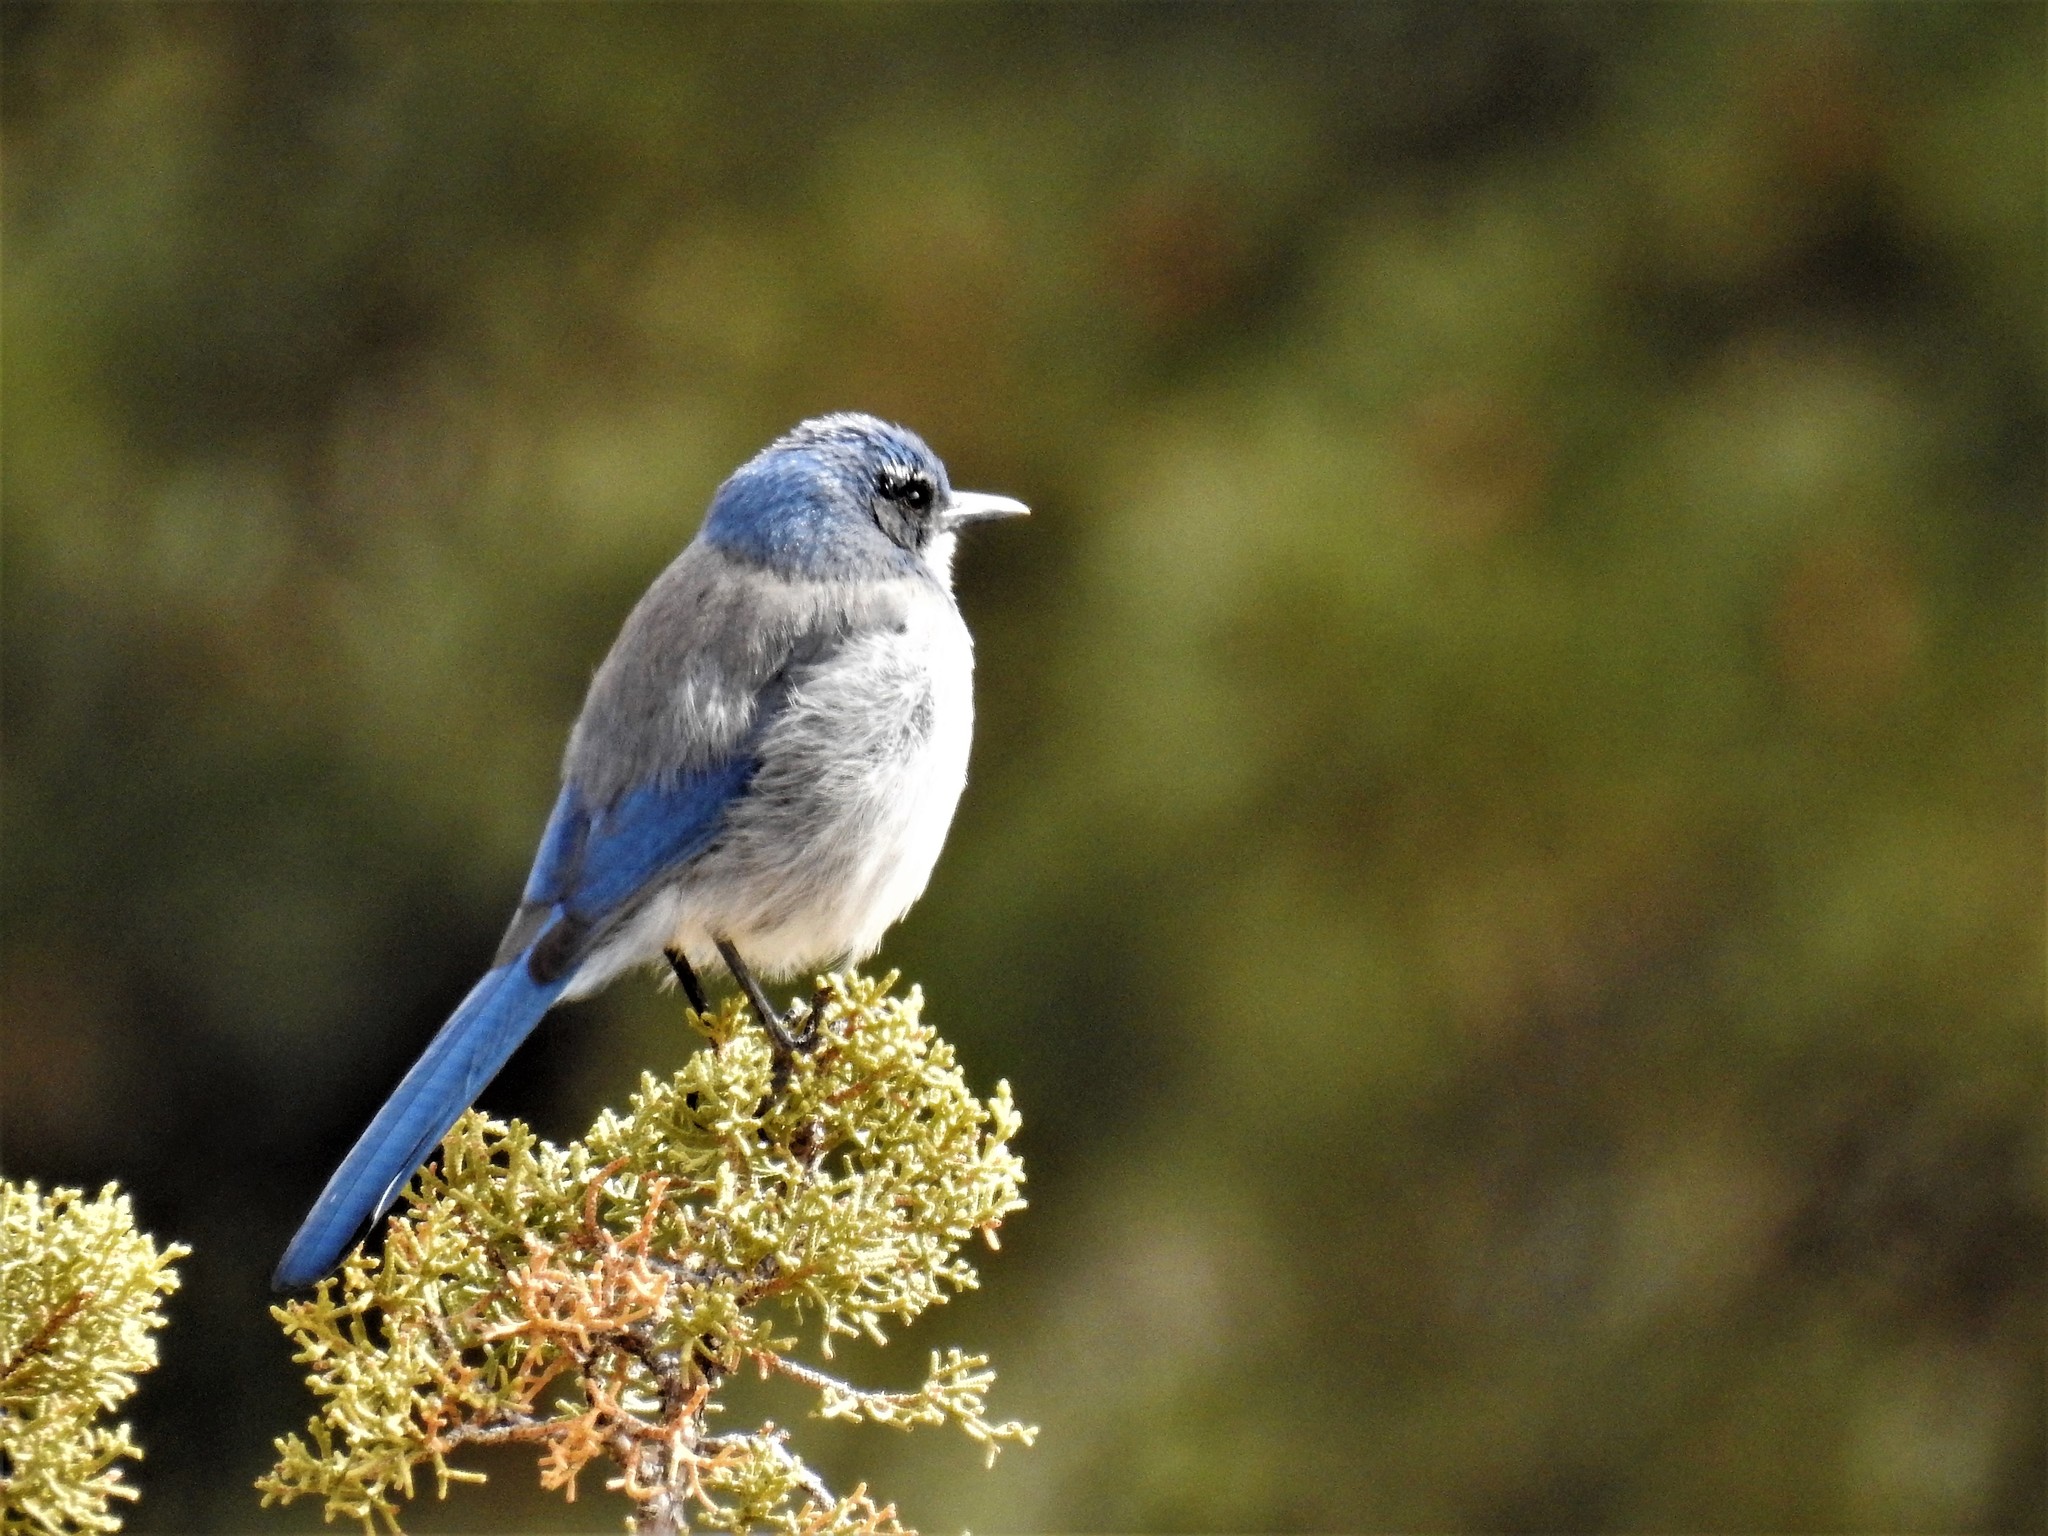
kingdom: Animalia
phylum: Chordata
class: Aves
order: Passeriformes
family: Corvidae
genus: Aphelocoma
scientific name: Aphelocoma woodhouseii
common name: Woodhouse's scrub-jay
